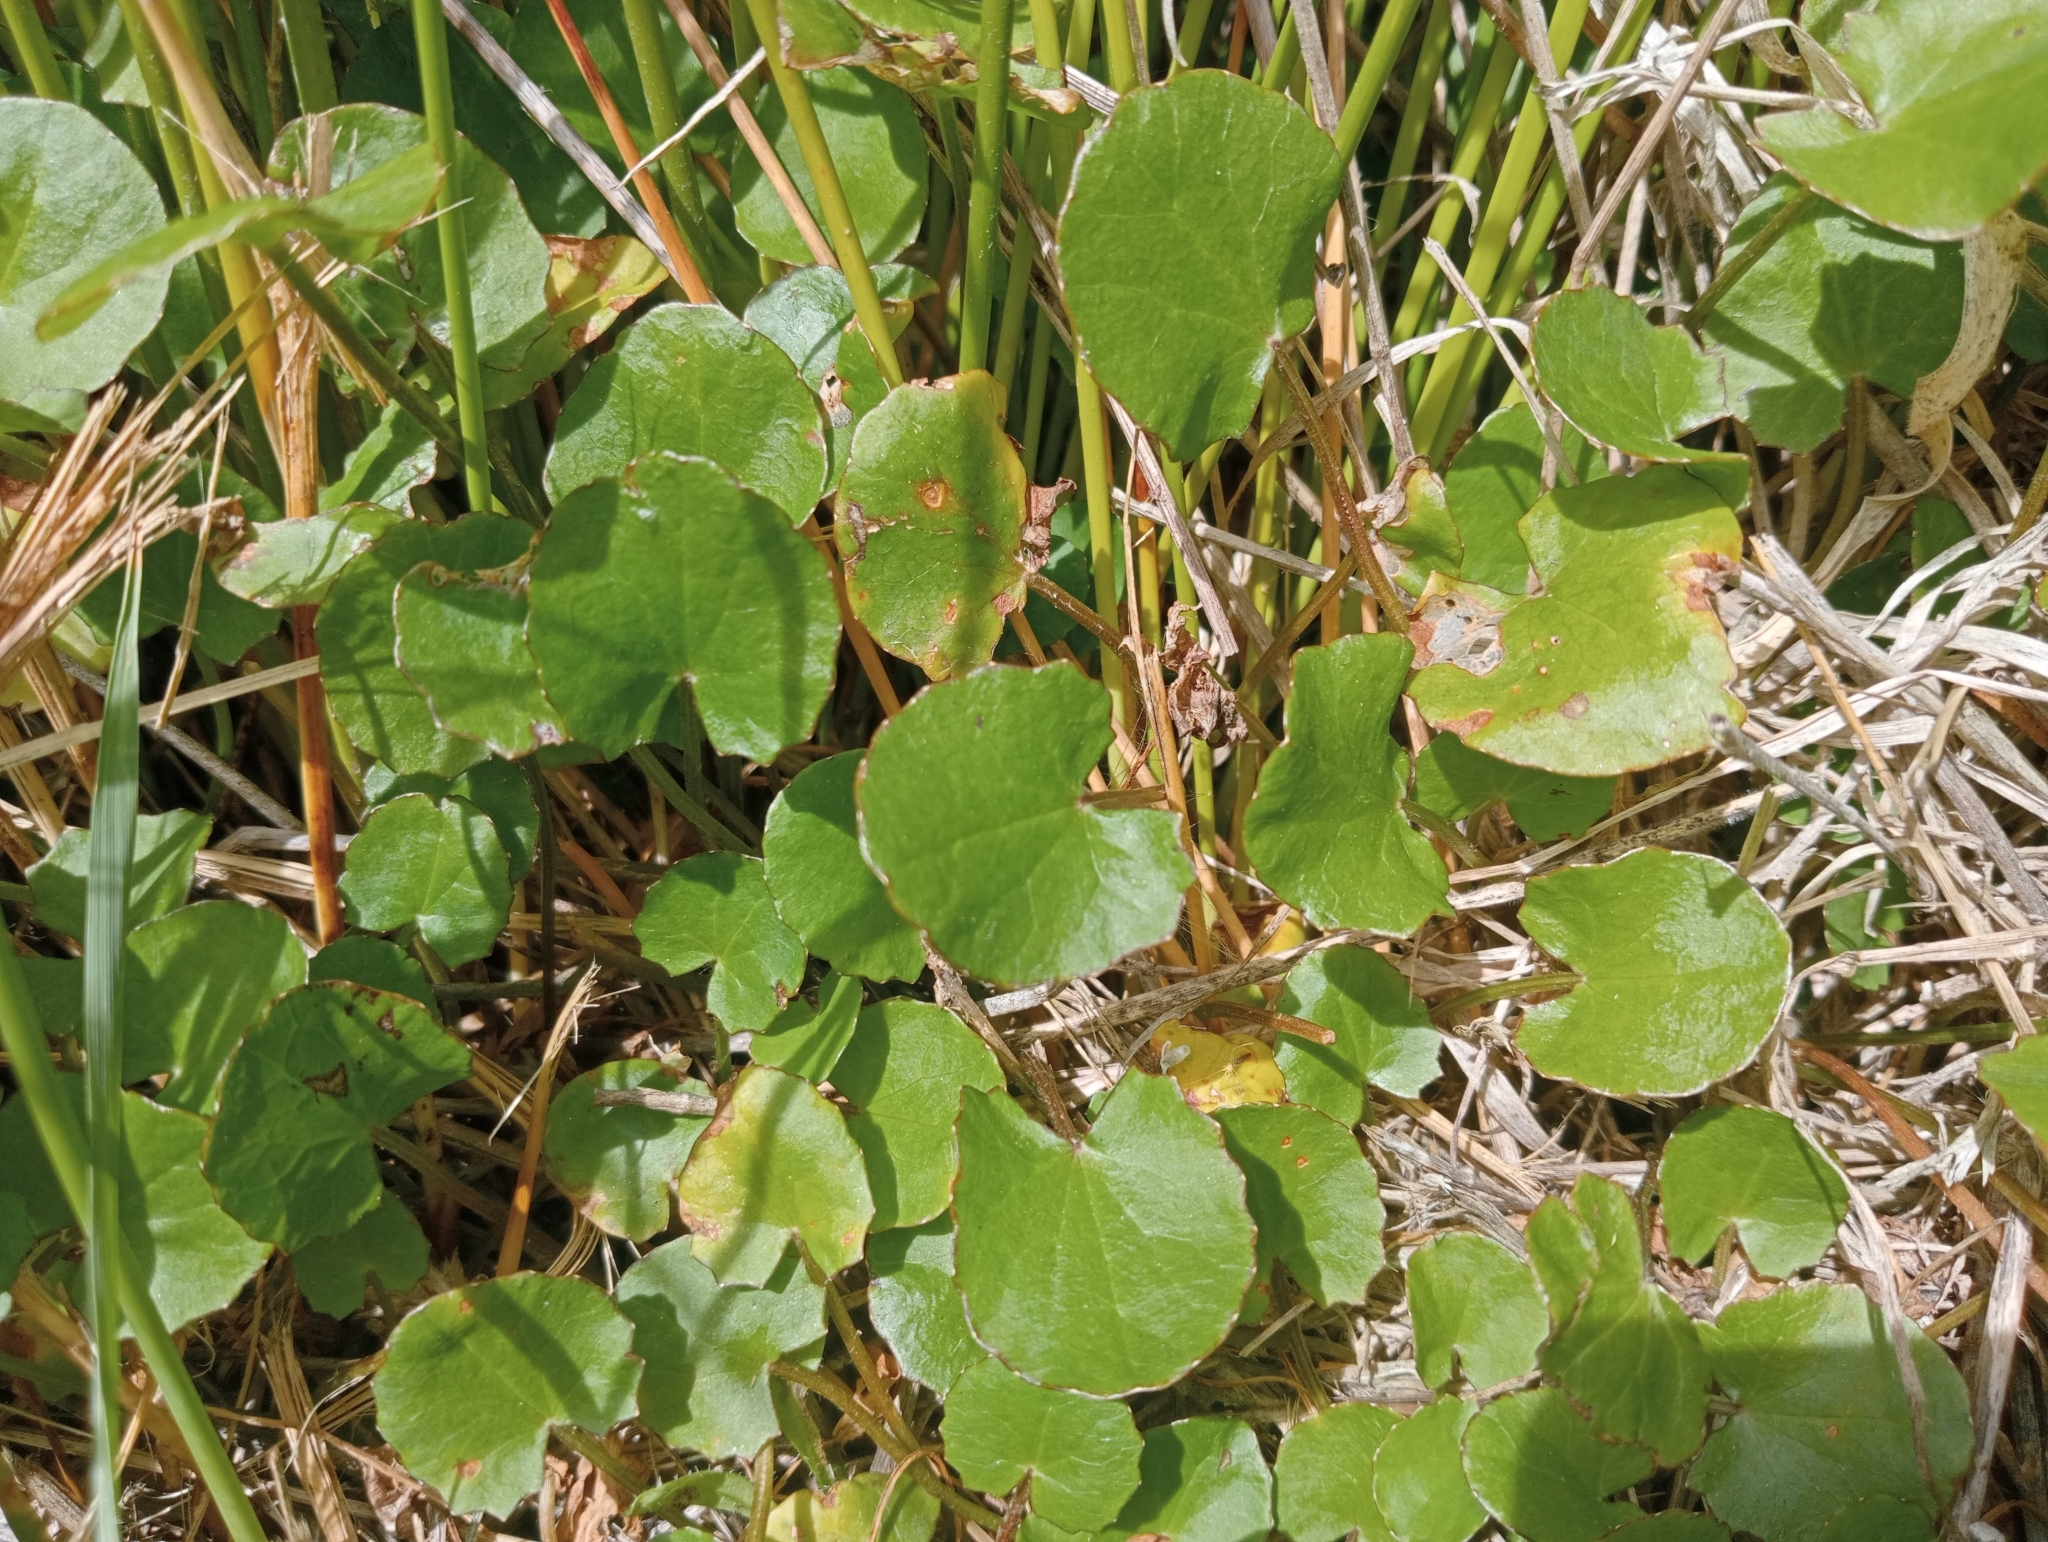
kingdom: Plantae
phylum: Tracheophyta
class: Magnoliopsida
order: Apiales
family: Apiaceae
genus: Centella
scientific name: Centella uniflora
